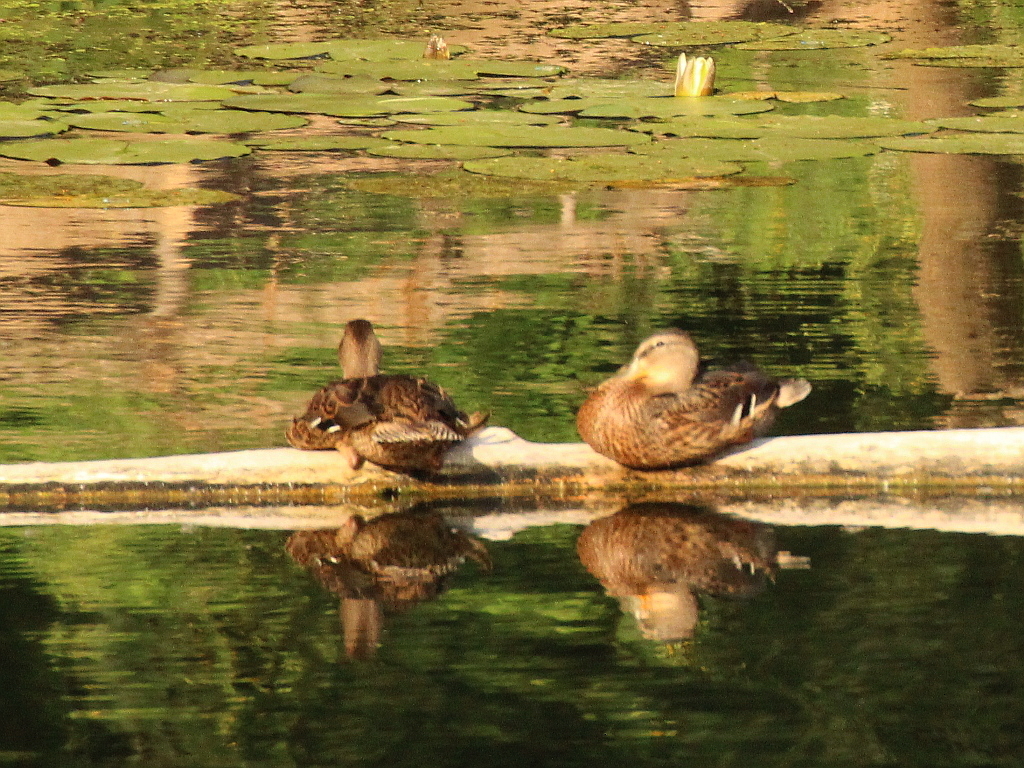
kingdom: Animalia
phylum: Chordata
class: Aves
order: Anseriformes
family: Anatidae
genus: Anas
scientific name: Anas platyrhynchos
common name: Mallard
